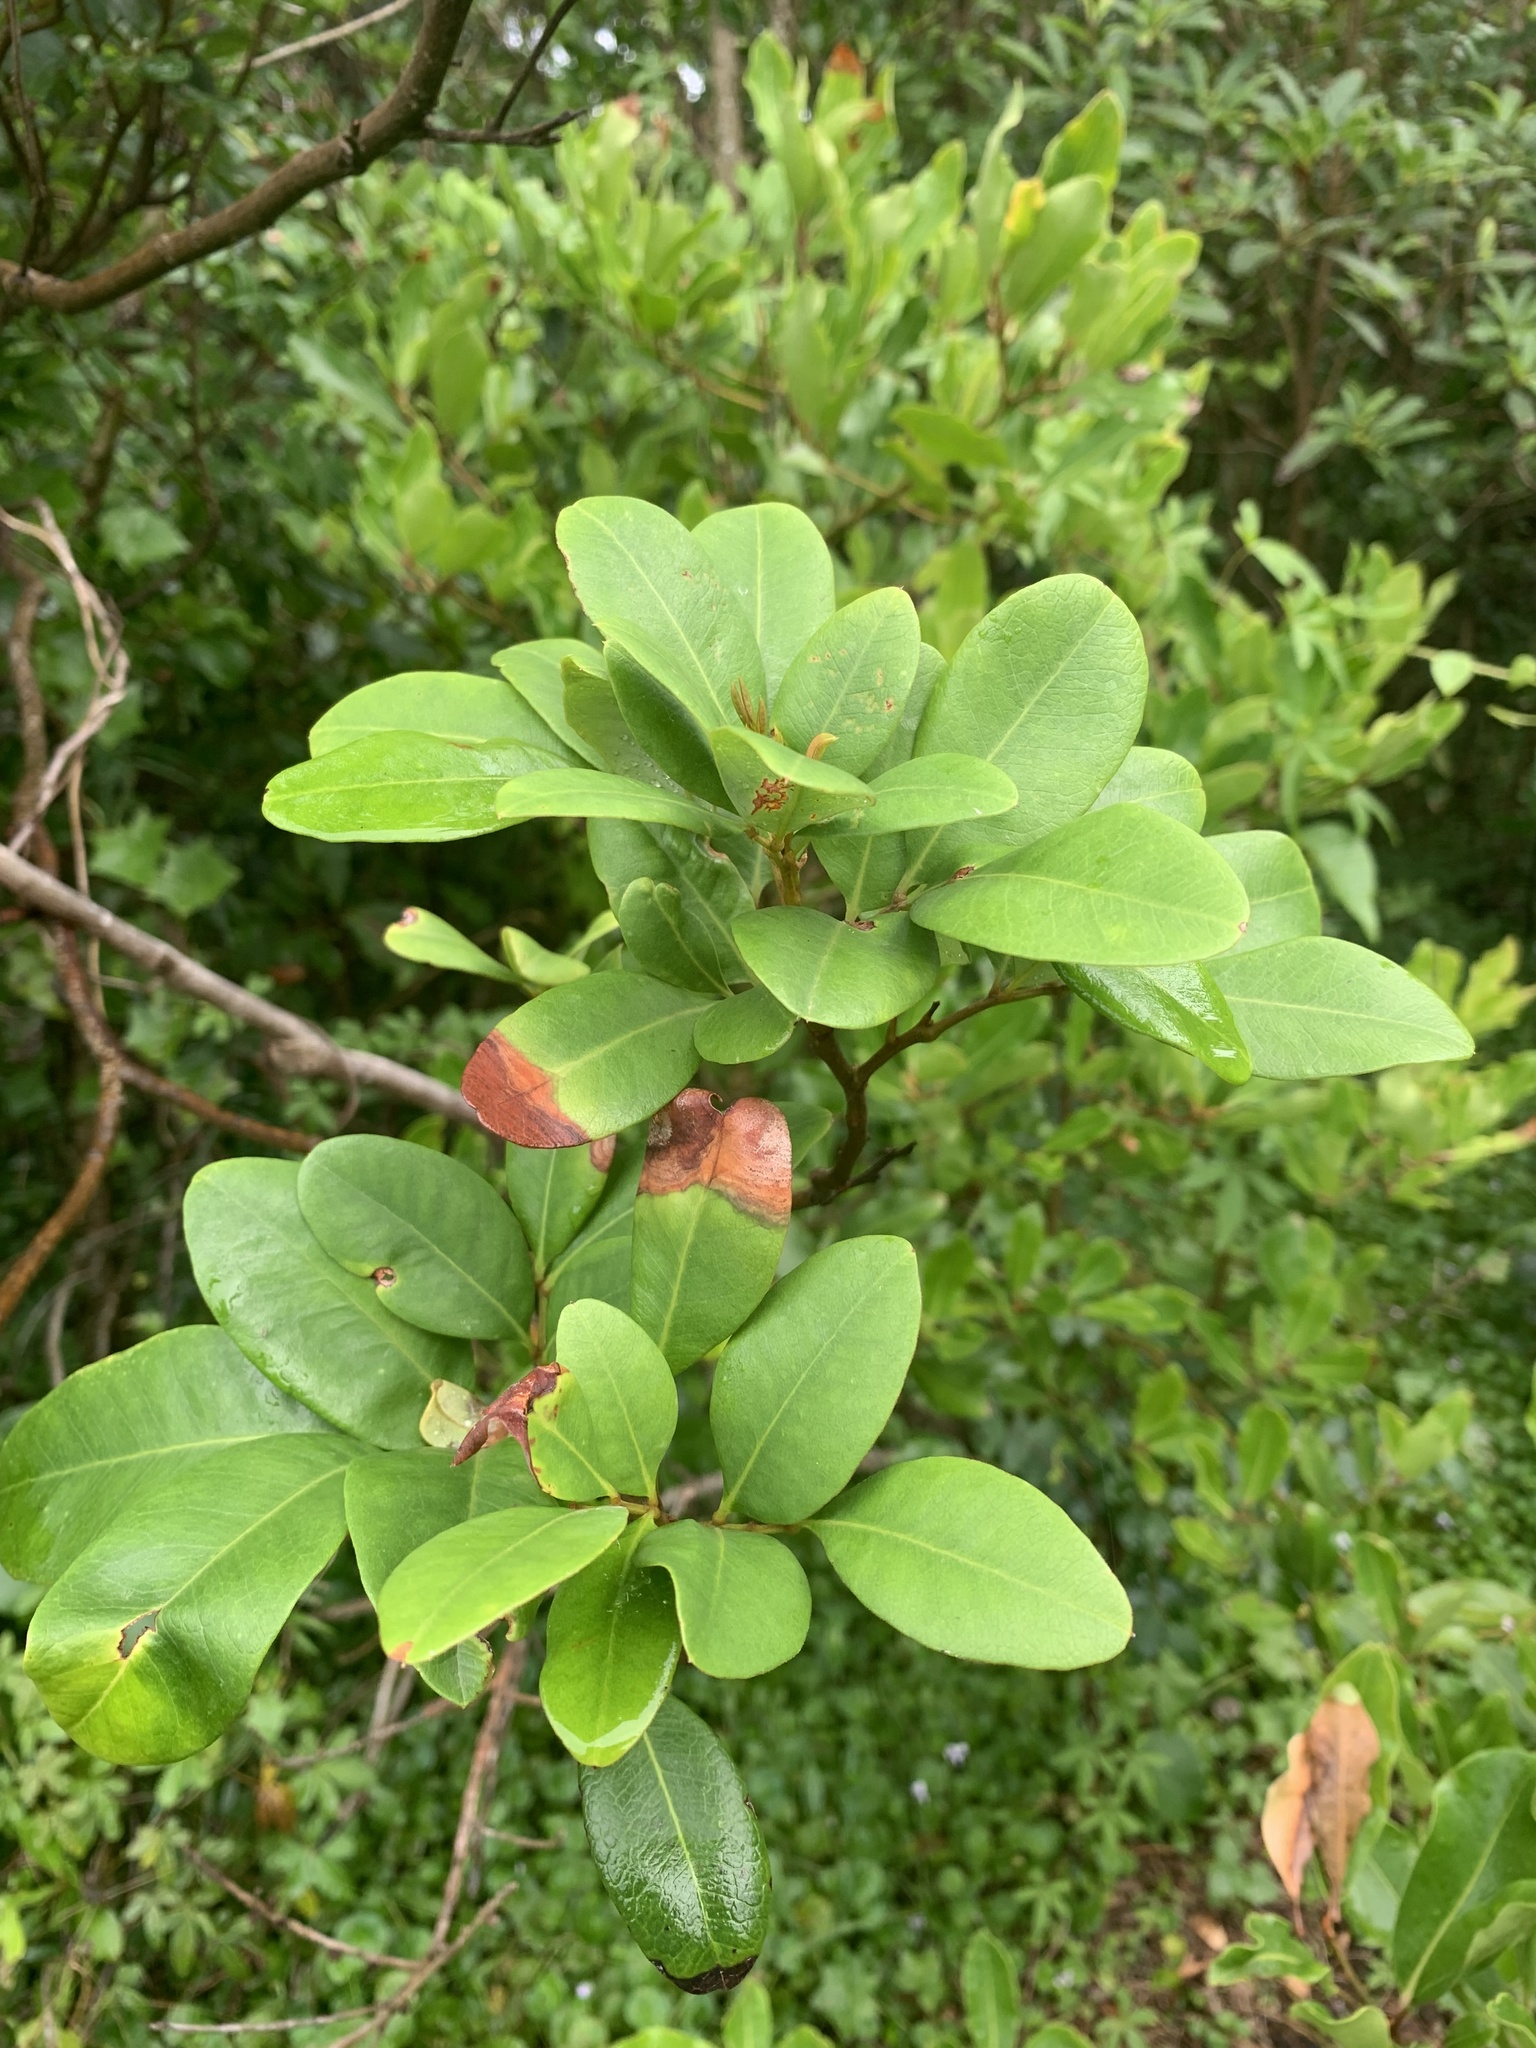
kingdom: Plantae
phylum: Tracheophyta
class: Magnoliopsida
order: Sapindales
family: Sapindaceae
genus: Guioa
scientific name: Guioa semiglauca
